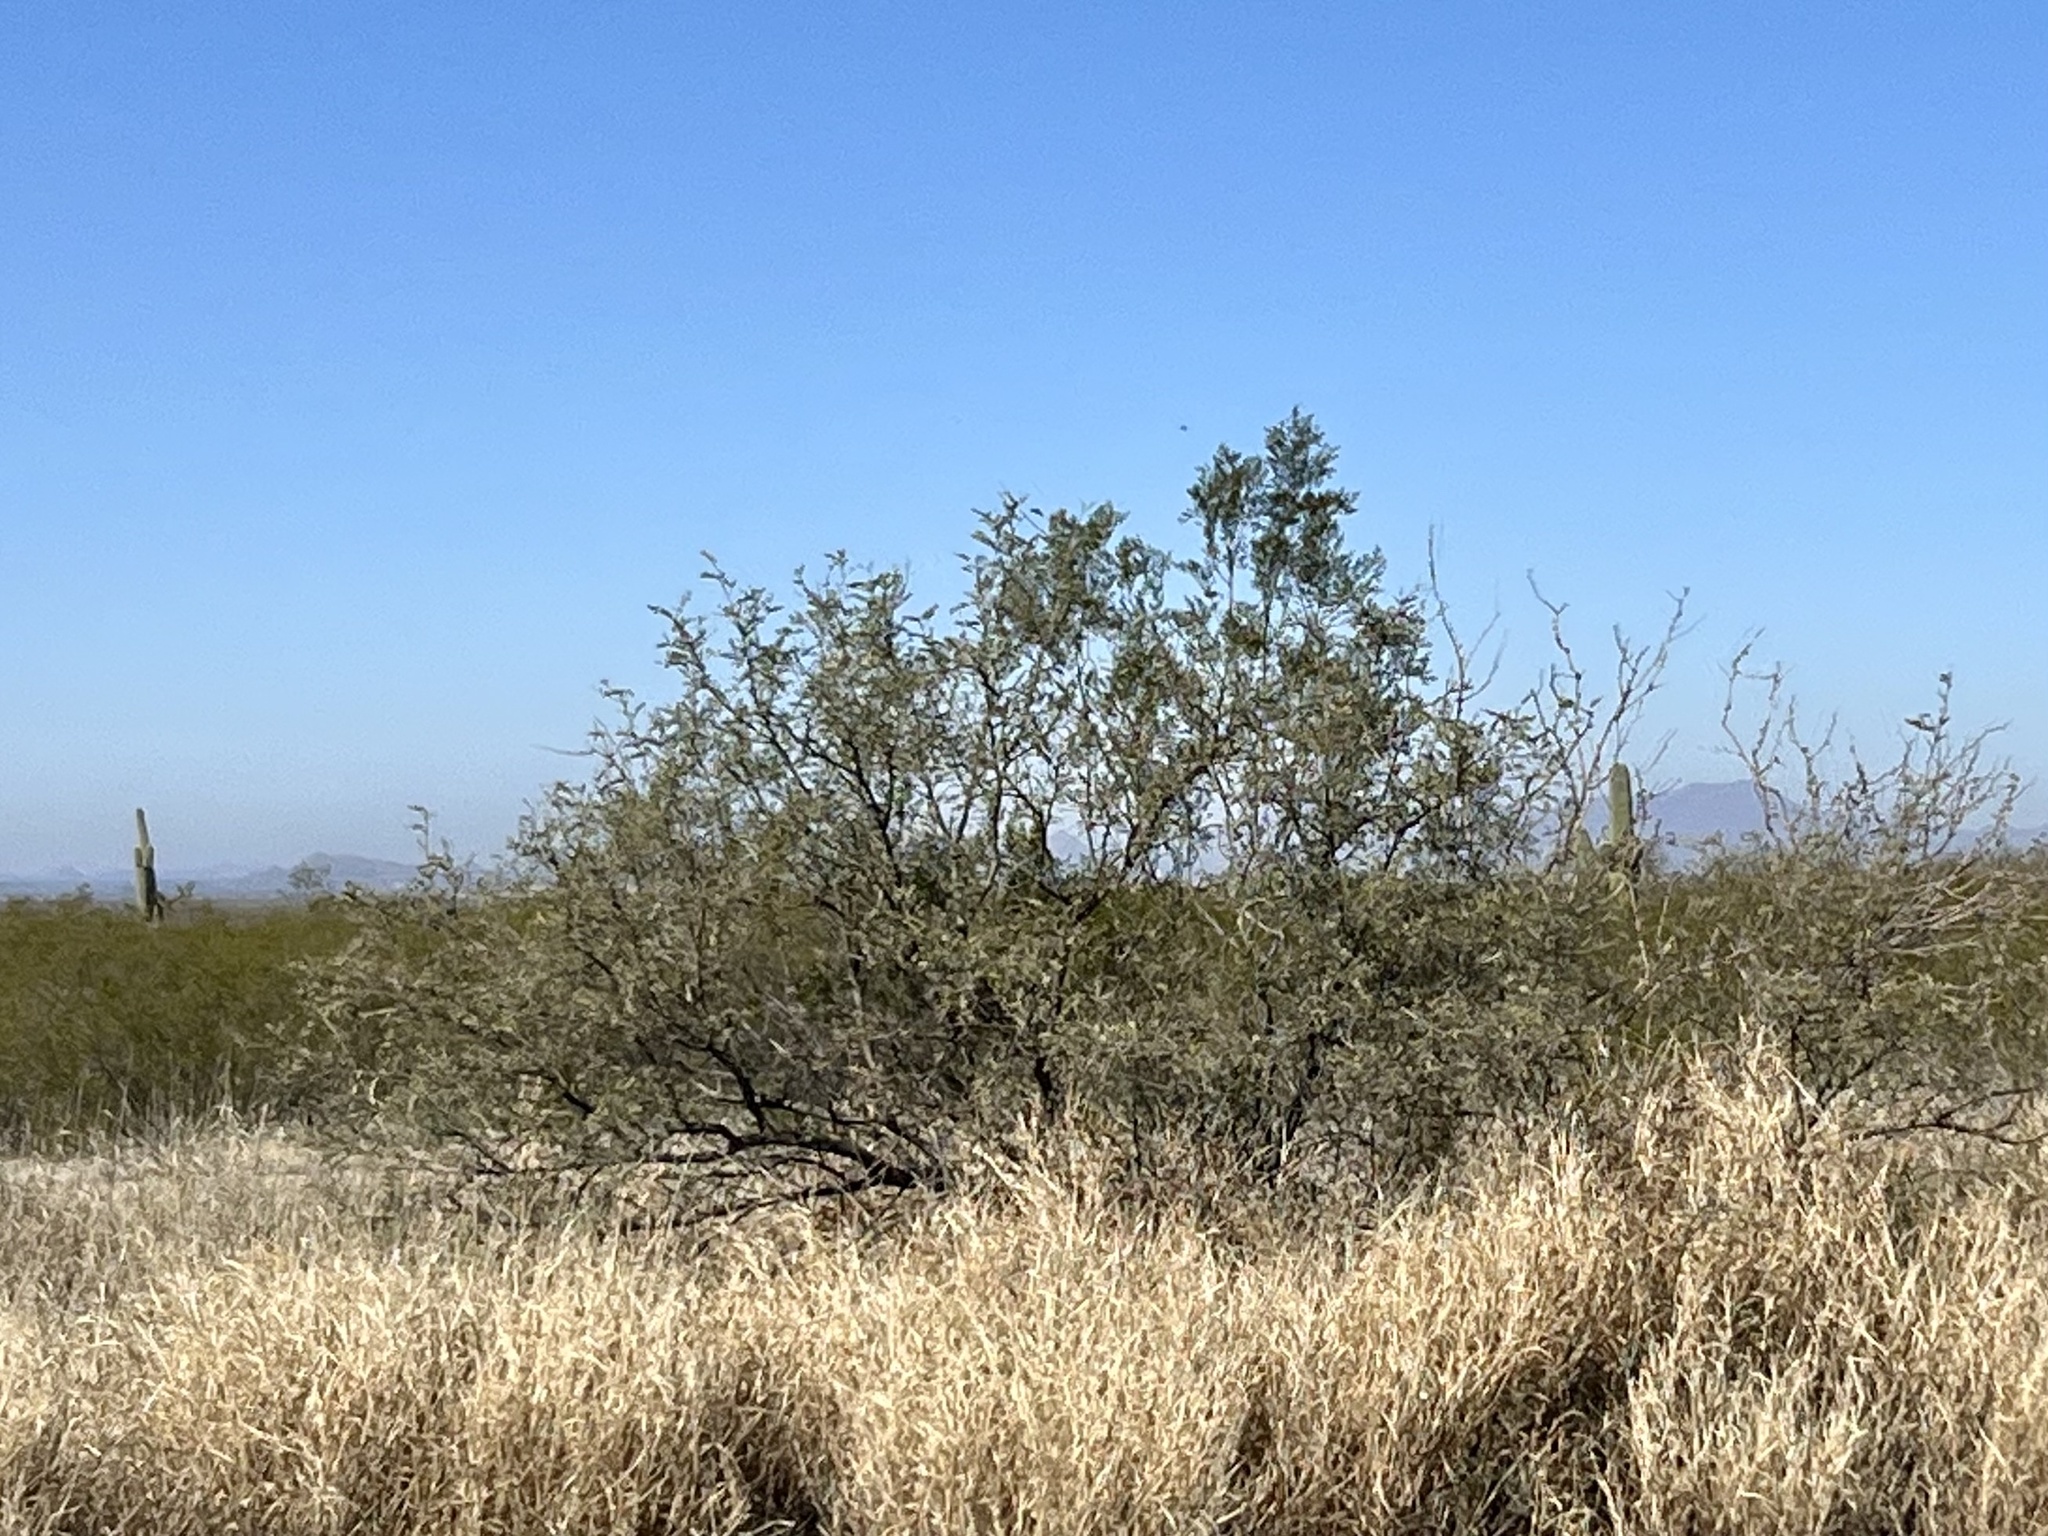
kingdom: Plantae
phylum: Tracheophyta
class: Magnoliopsida
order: Zygophyllales
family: Zygophyllaceae
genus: Larrea
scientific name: Larrea tridentata
